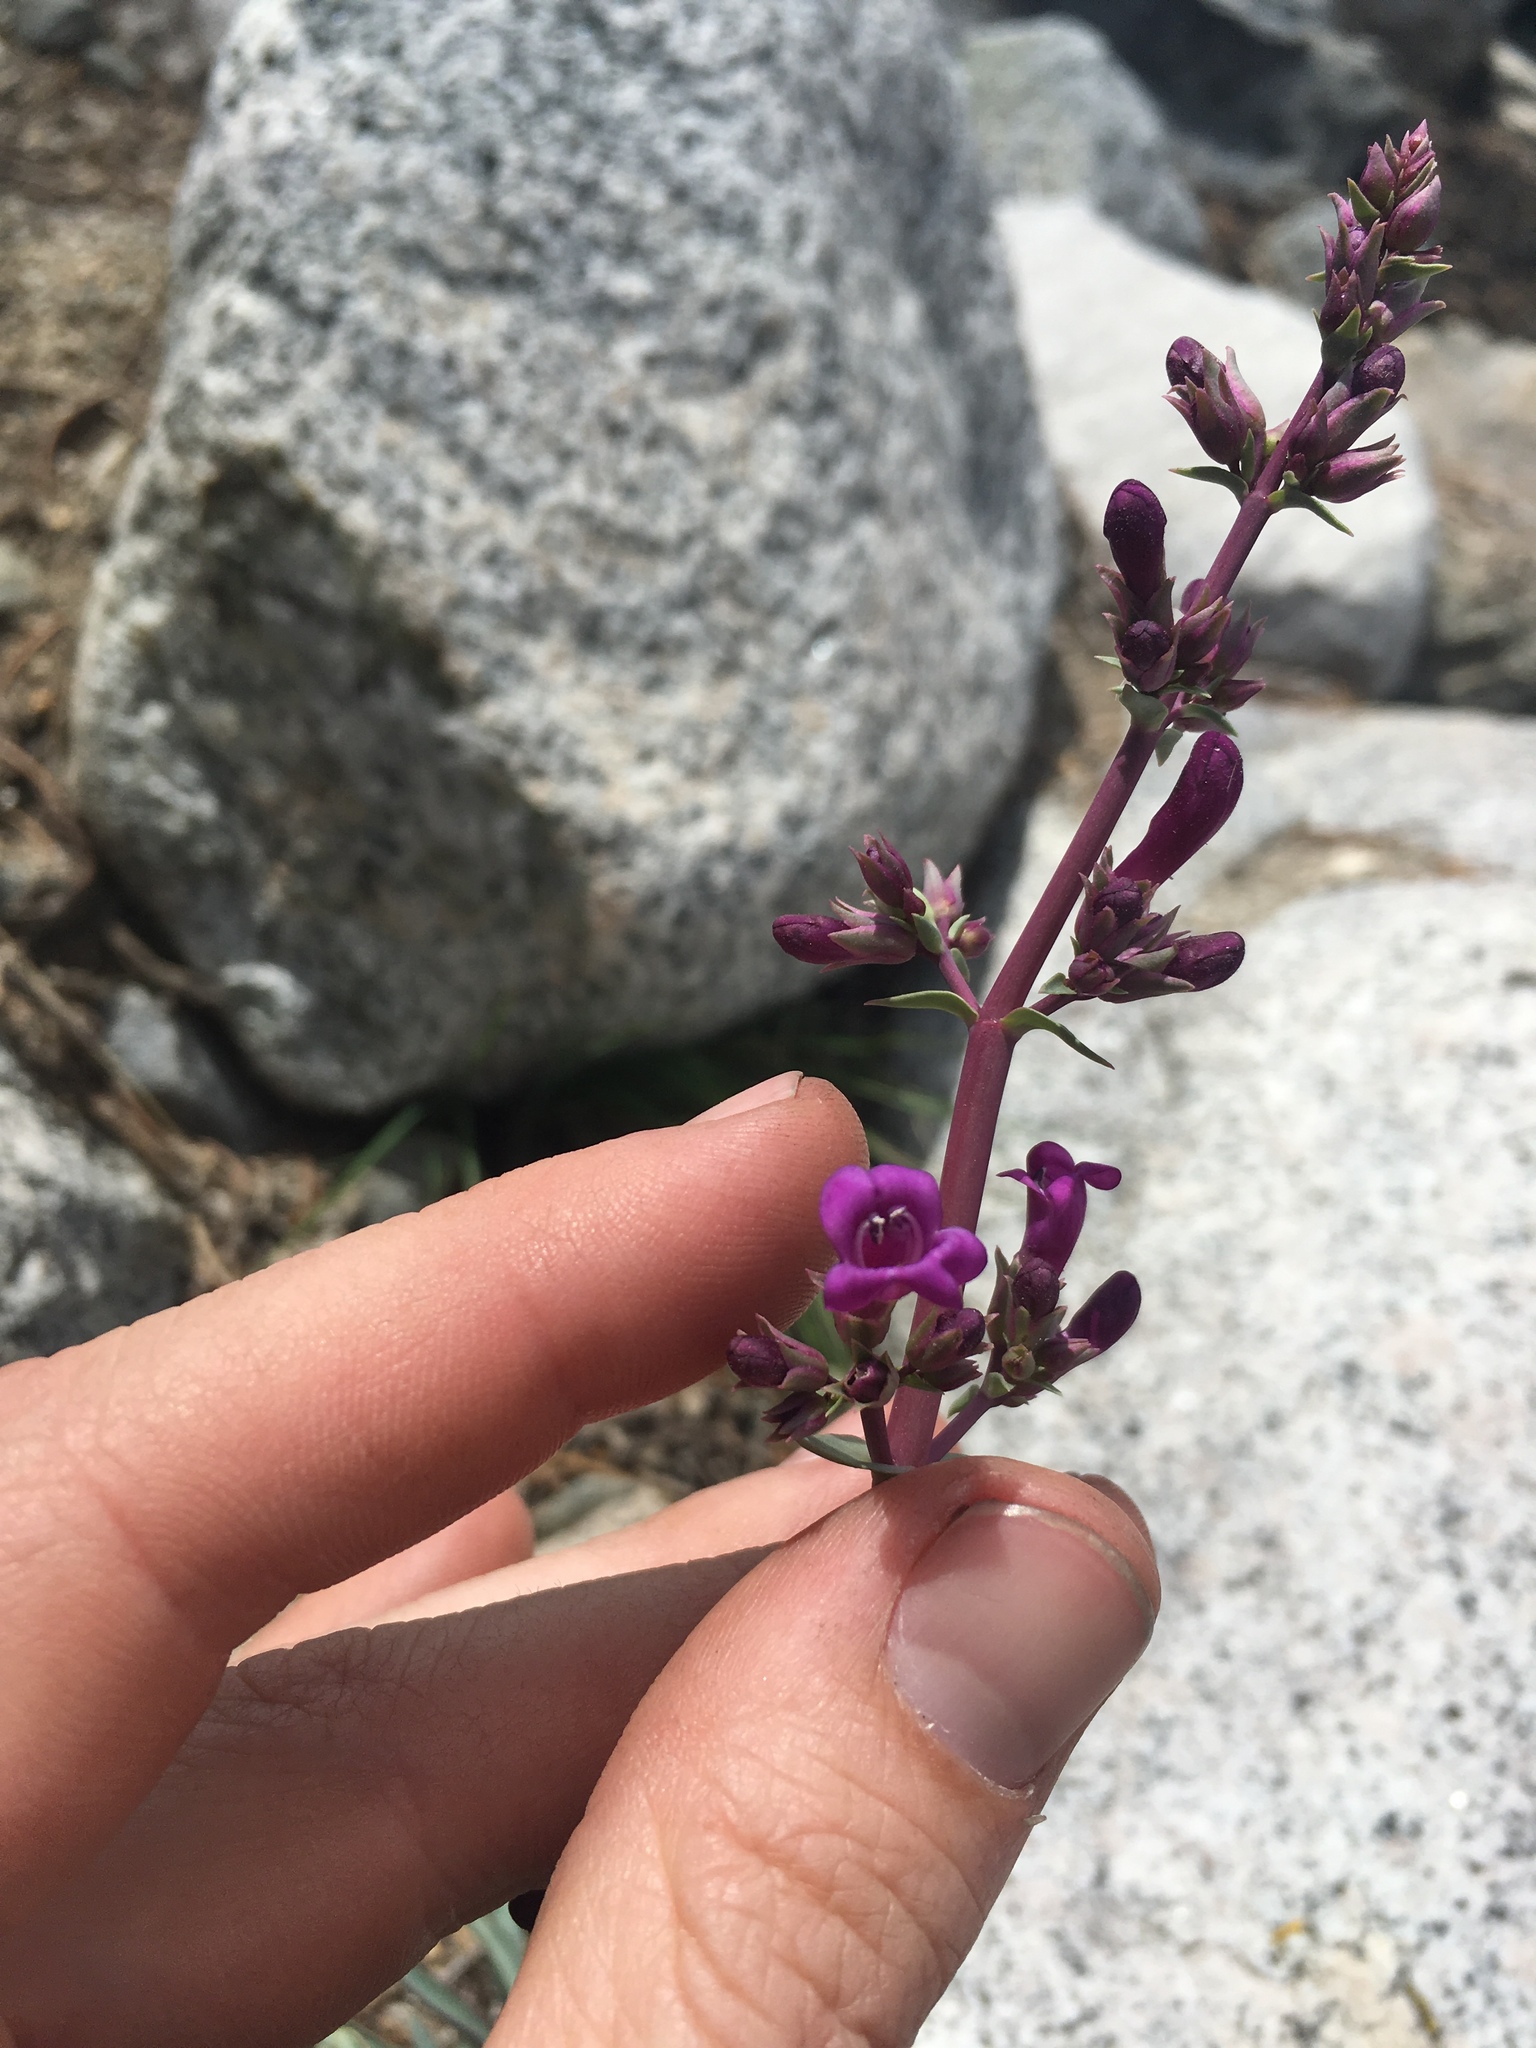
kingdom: Plantae
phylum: Tracheophyta
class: Magnoliopsida
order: Lamiales
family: Plantaginaceae
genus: Penstemon
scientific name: Penstemon patens
